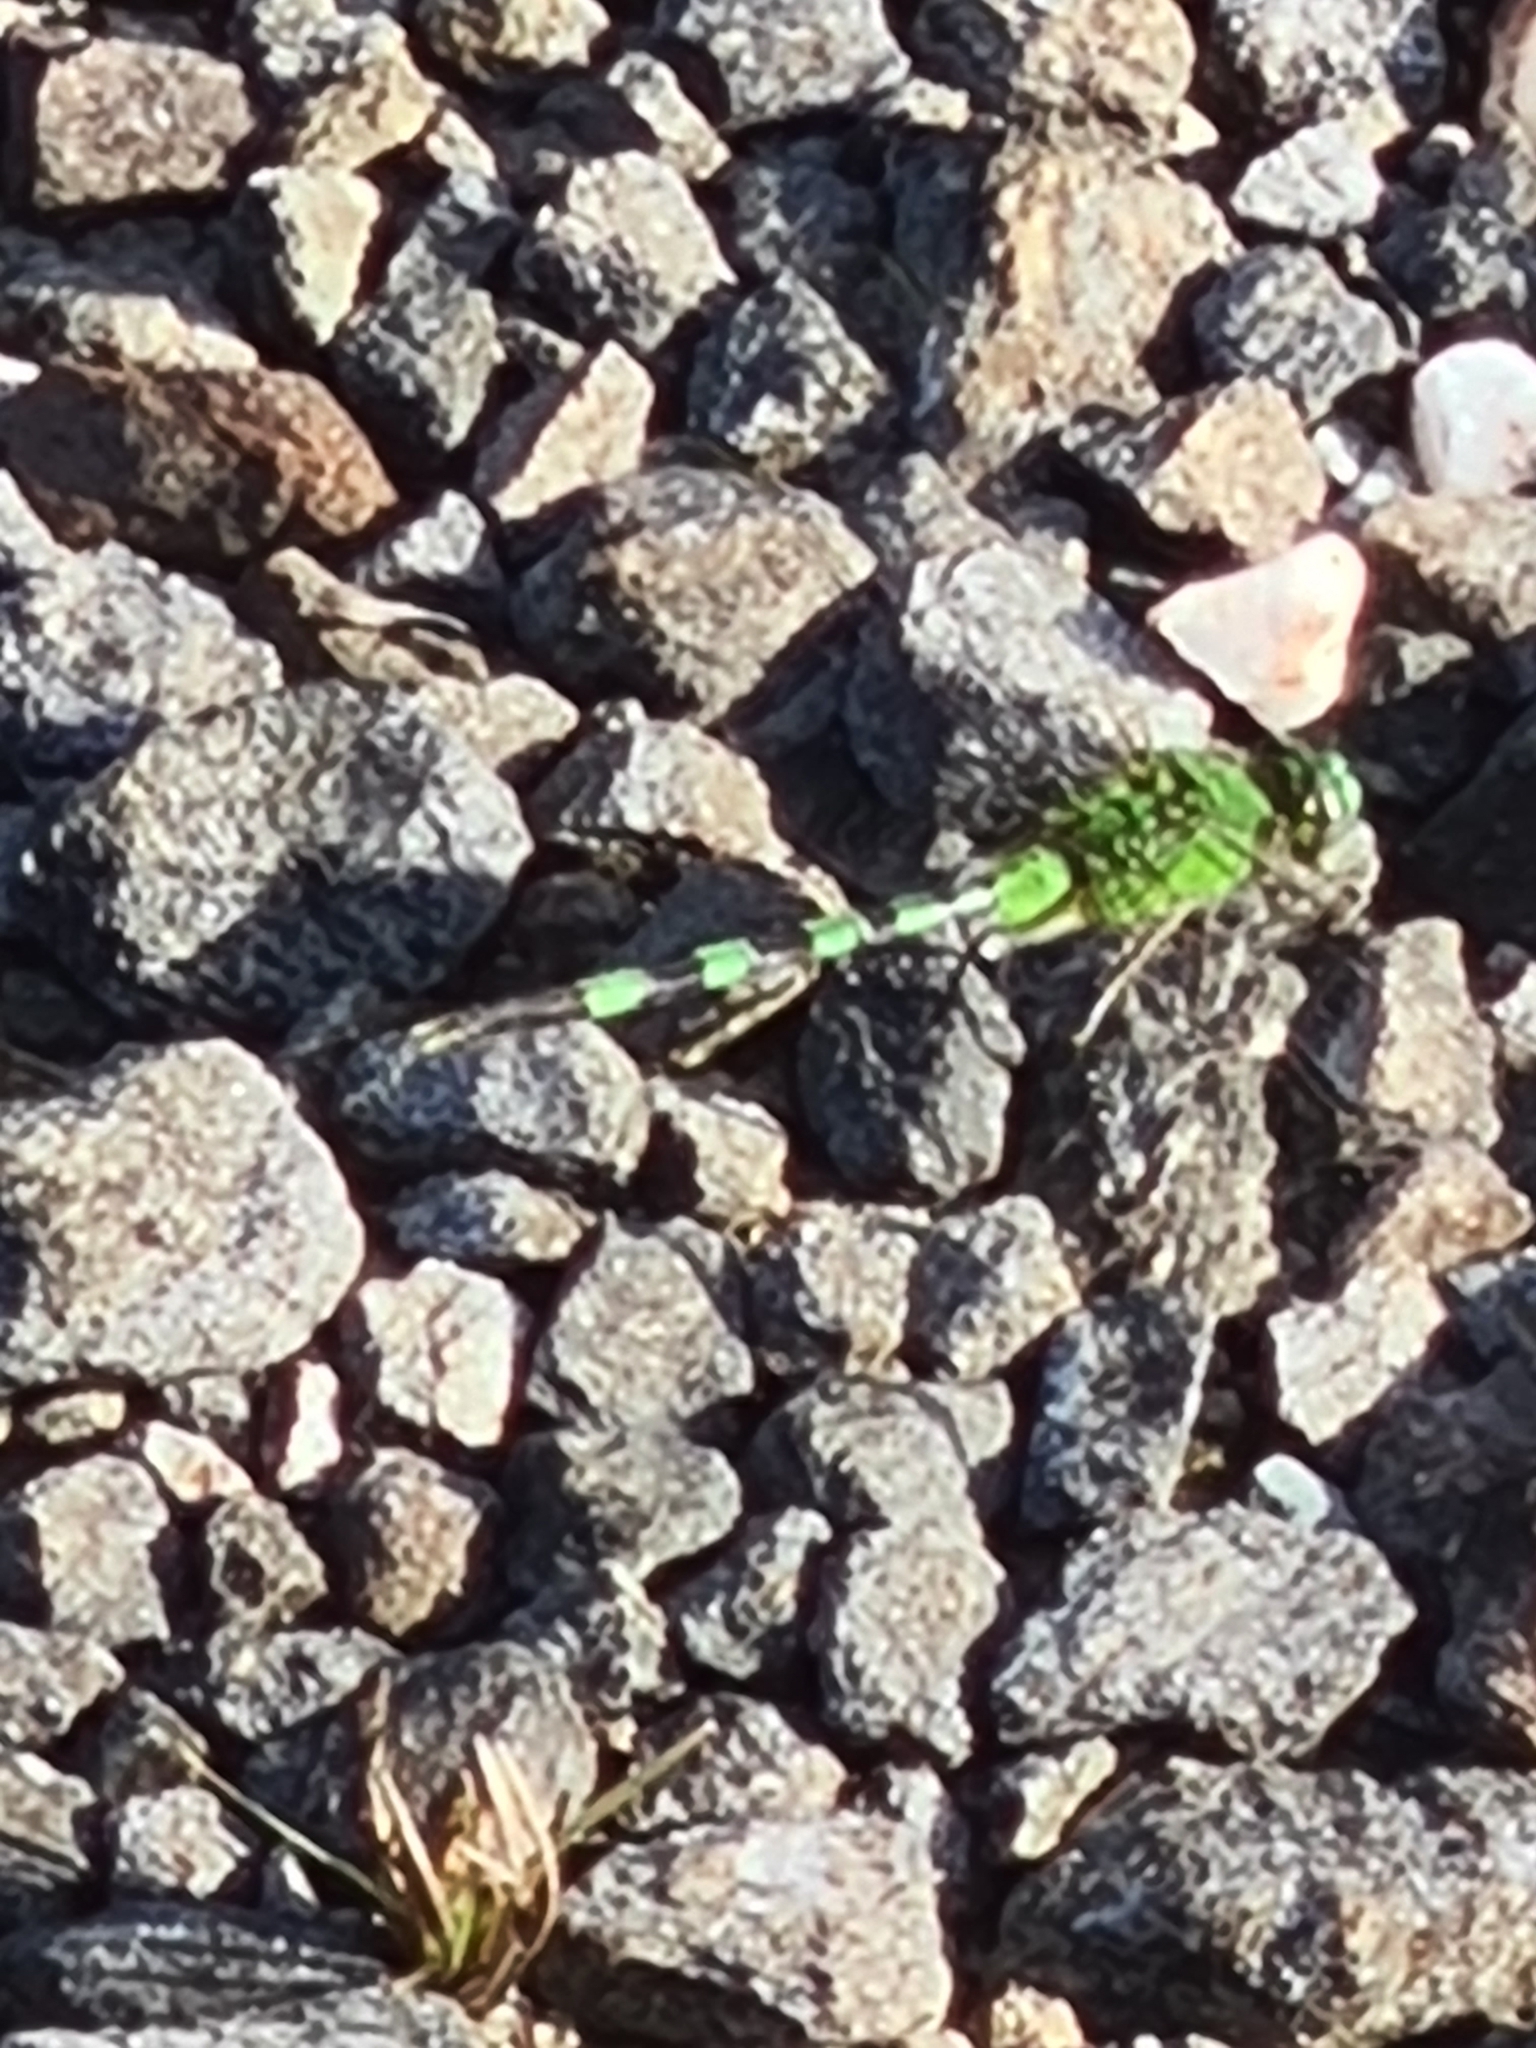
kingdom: Animalia
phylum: Arthropoda
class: Insecta
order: Odonata
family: Libellulidae
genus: Erythemis
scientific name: Erythemis vesiculosa
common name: Great pondhawk
